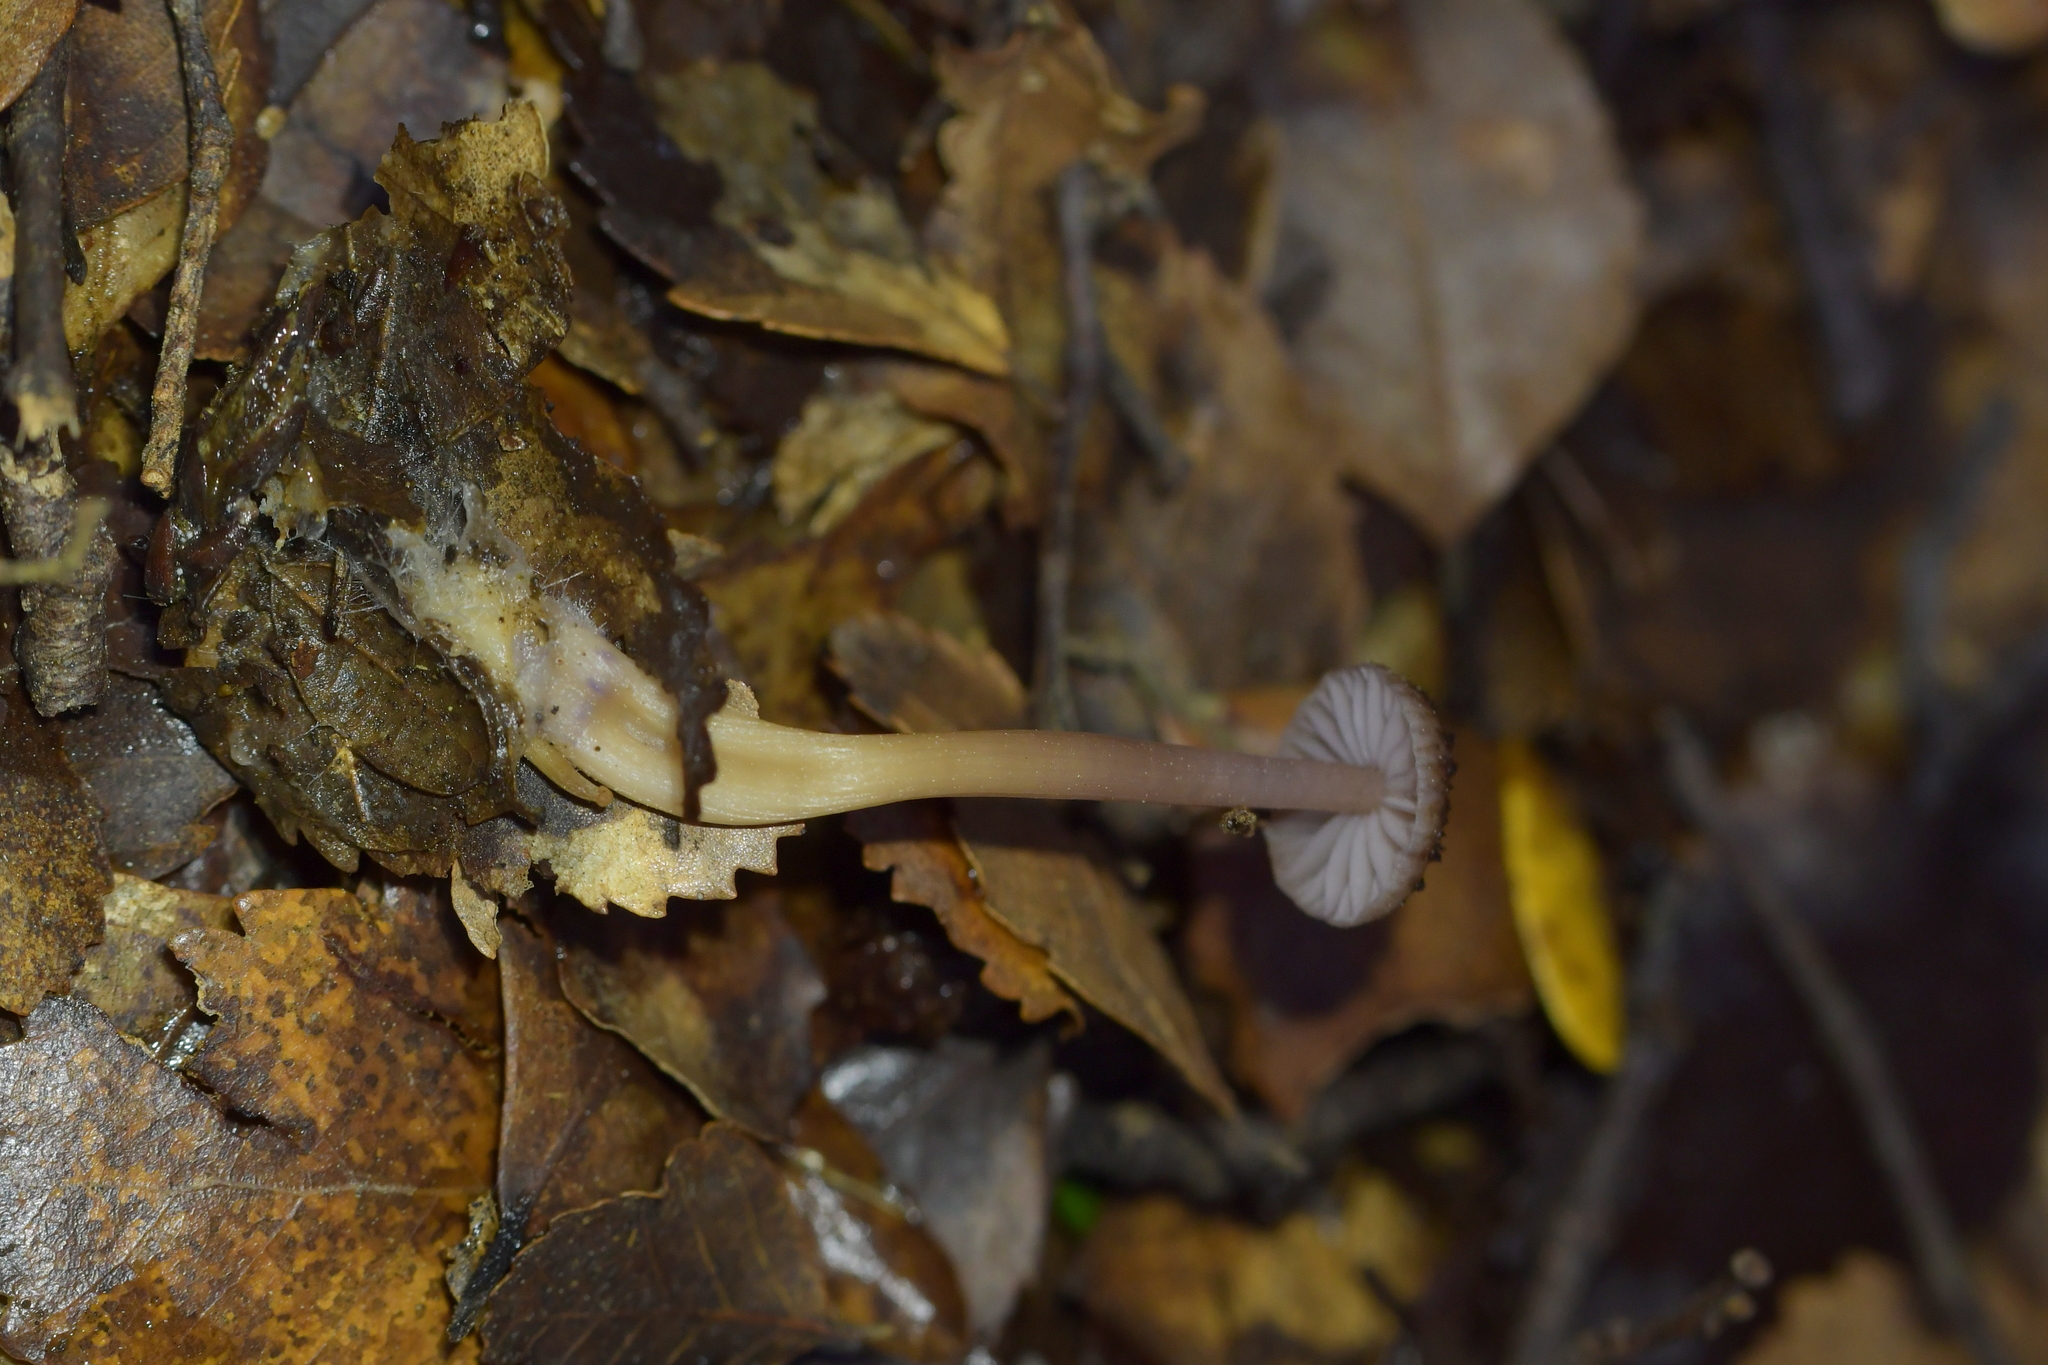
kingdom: Fungi
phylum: Basidiomycota
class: Agaricomycetes
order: Agaricales
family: Hydnangiaceae
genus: Laccaria
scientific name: Laccaria masoniae
